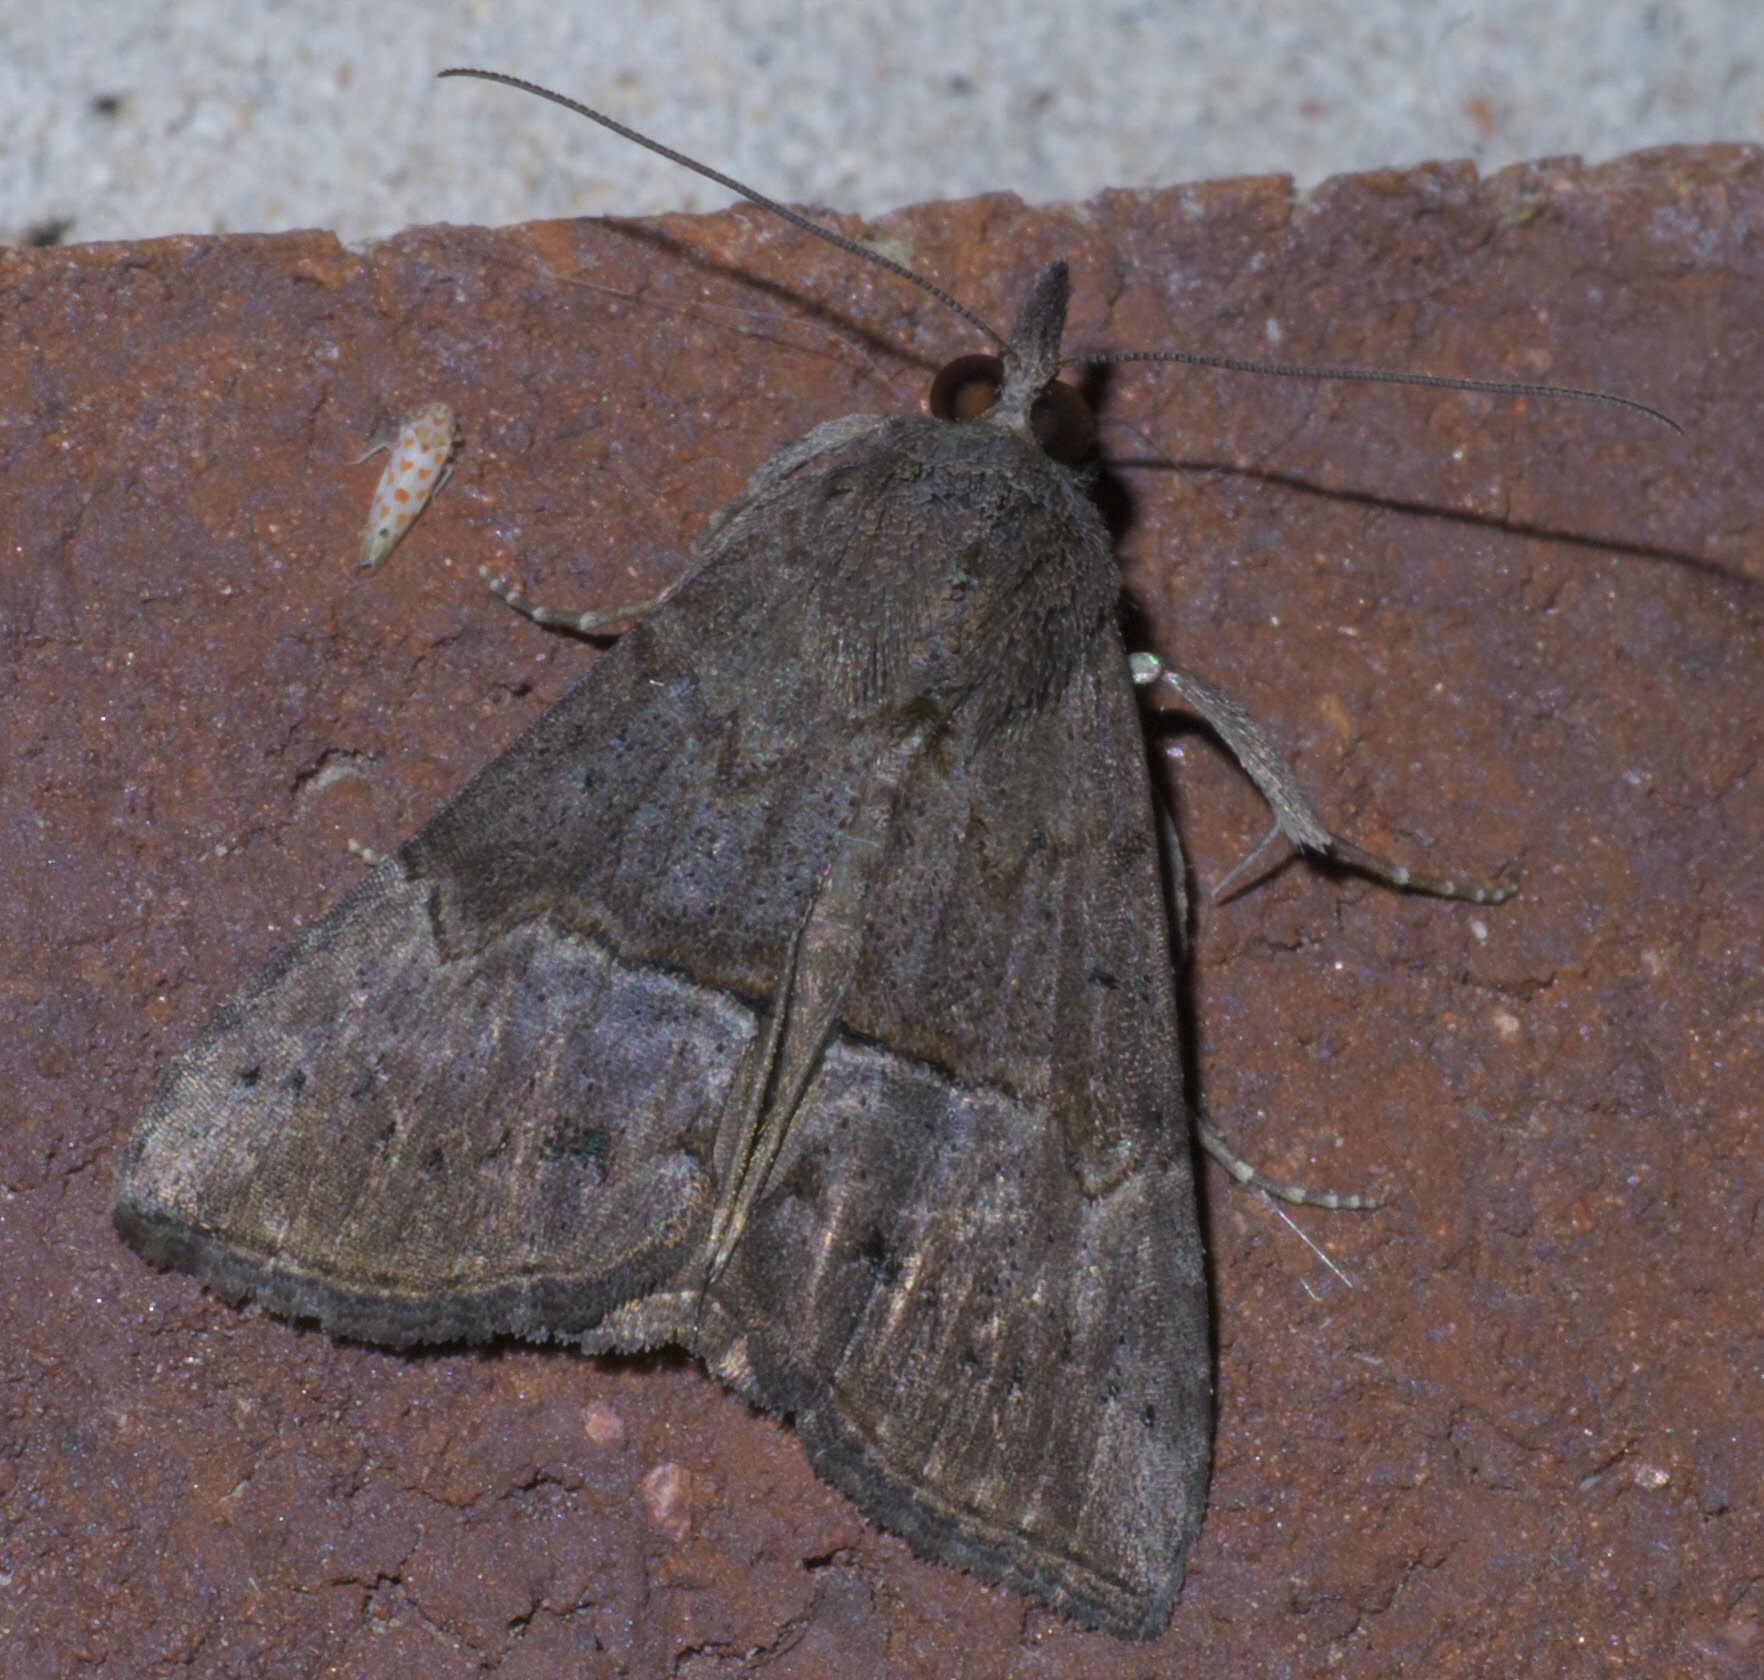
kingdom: Animalia
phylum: Arthropoda
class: Insecta
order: Lepidoptera
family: Erebidae
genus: Hypena
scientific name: Hypena scabra
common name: Green cloverworm
